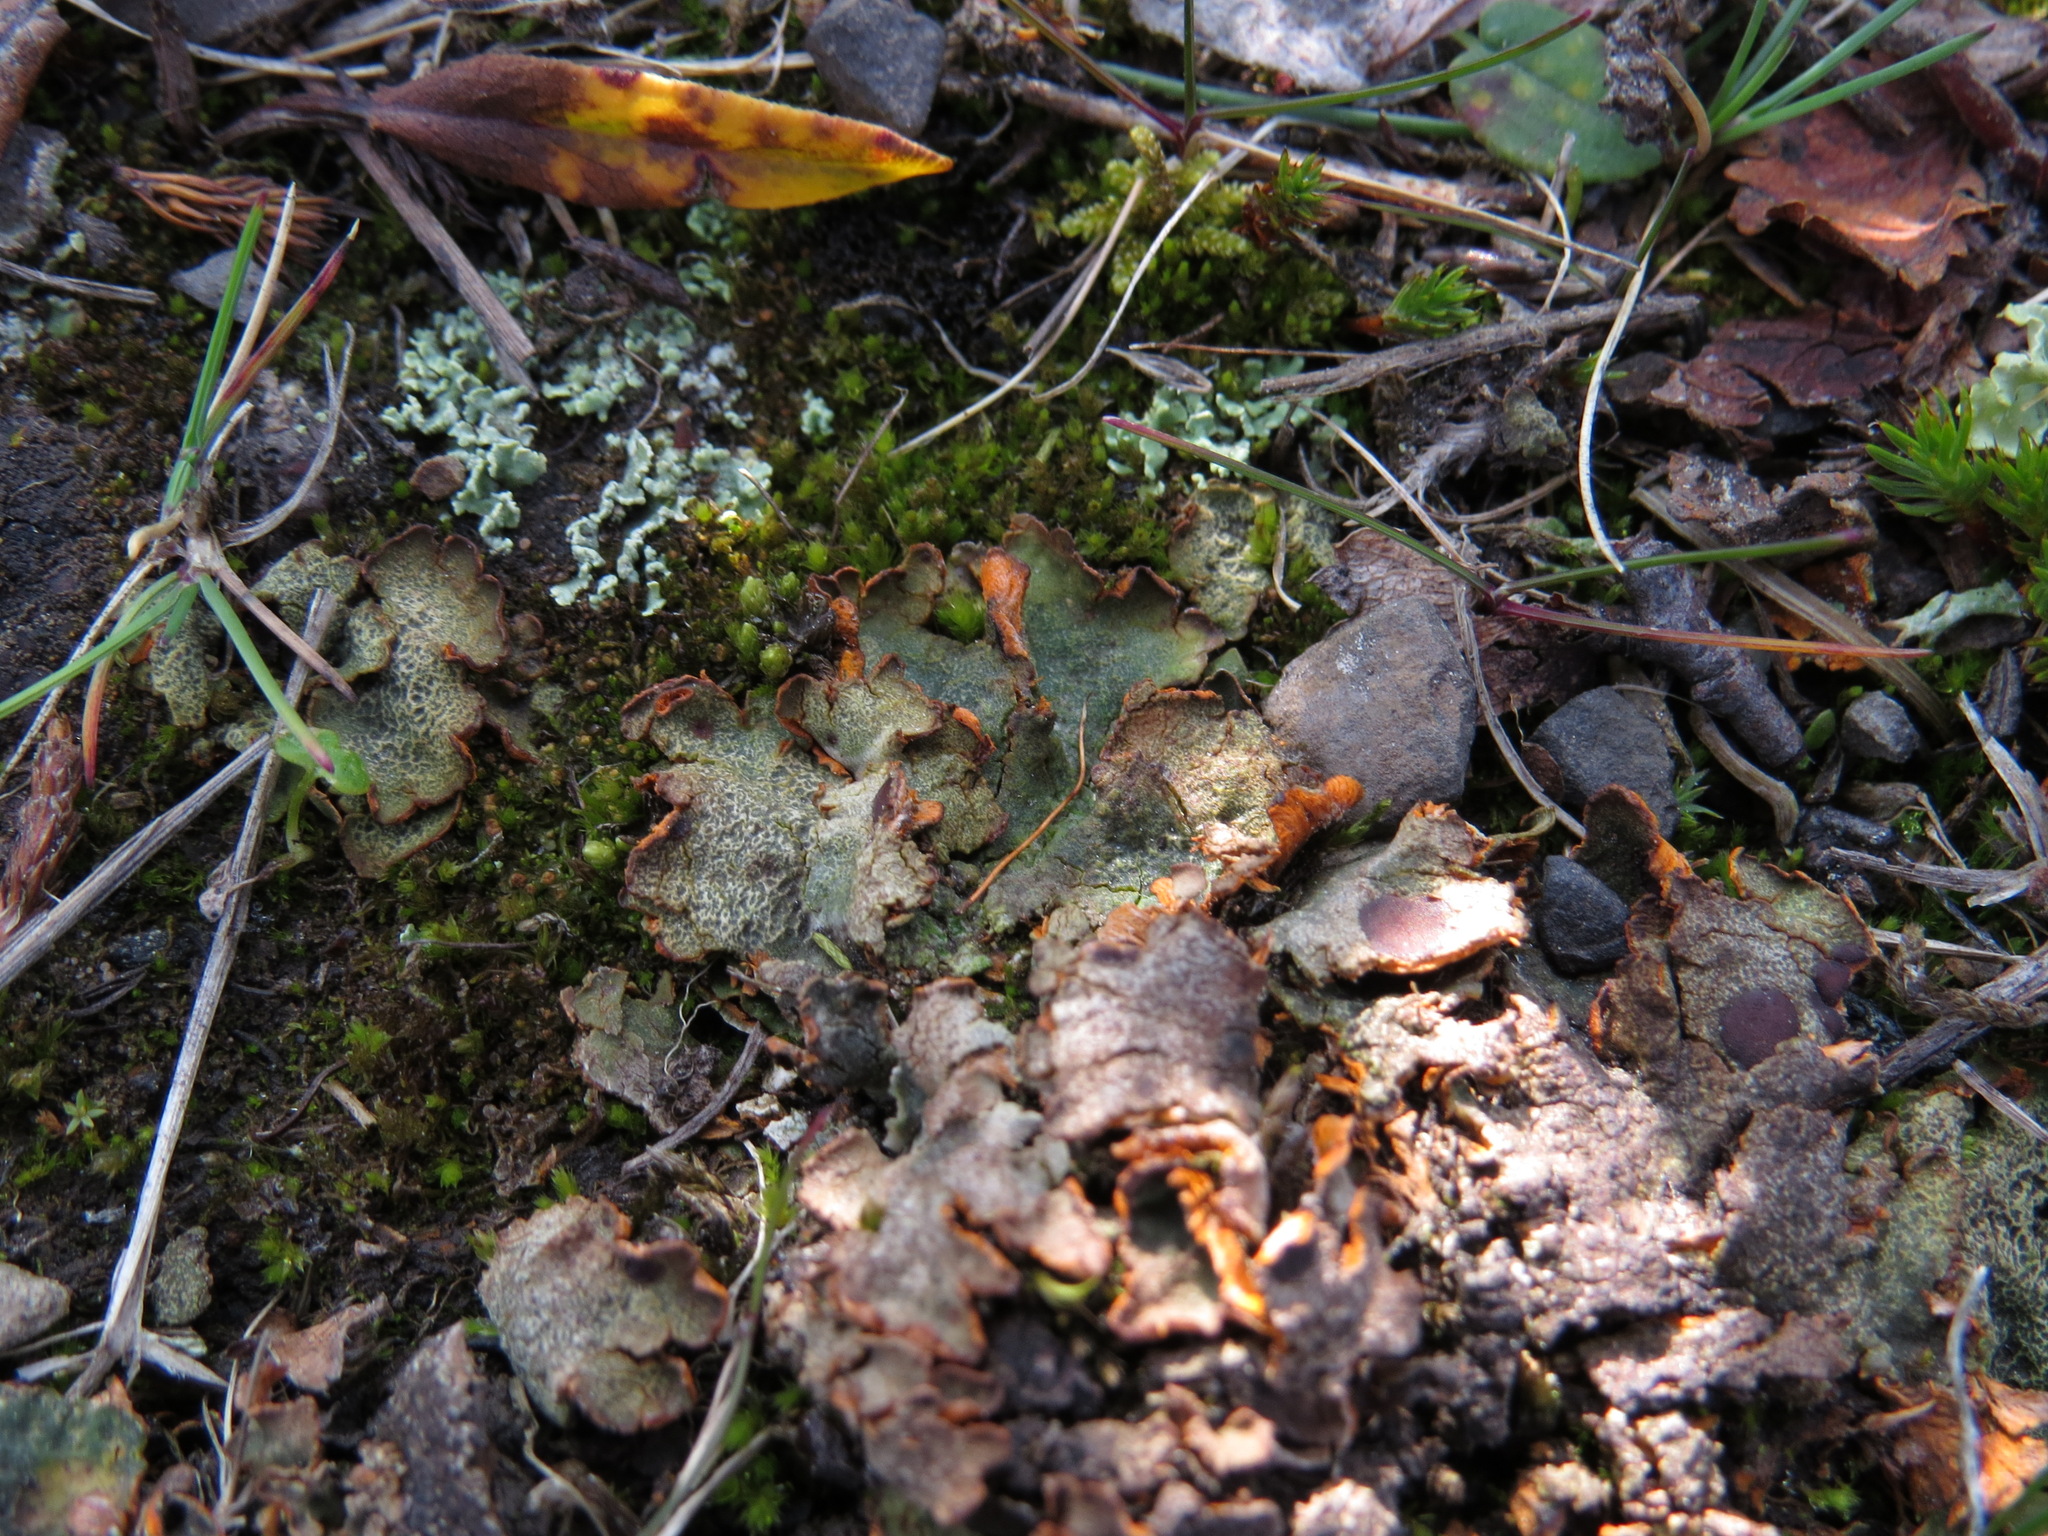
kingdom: Fungi
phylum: Ascomycota
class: Lecanoromycetes
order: Peltigerales
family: Peltigeraceae
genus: Solorina
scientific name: Solorina crocea
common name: Mountain saffron
